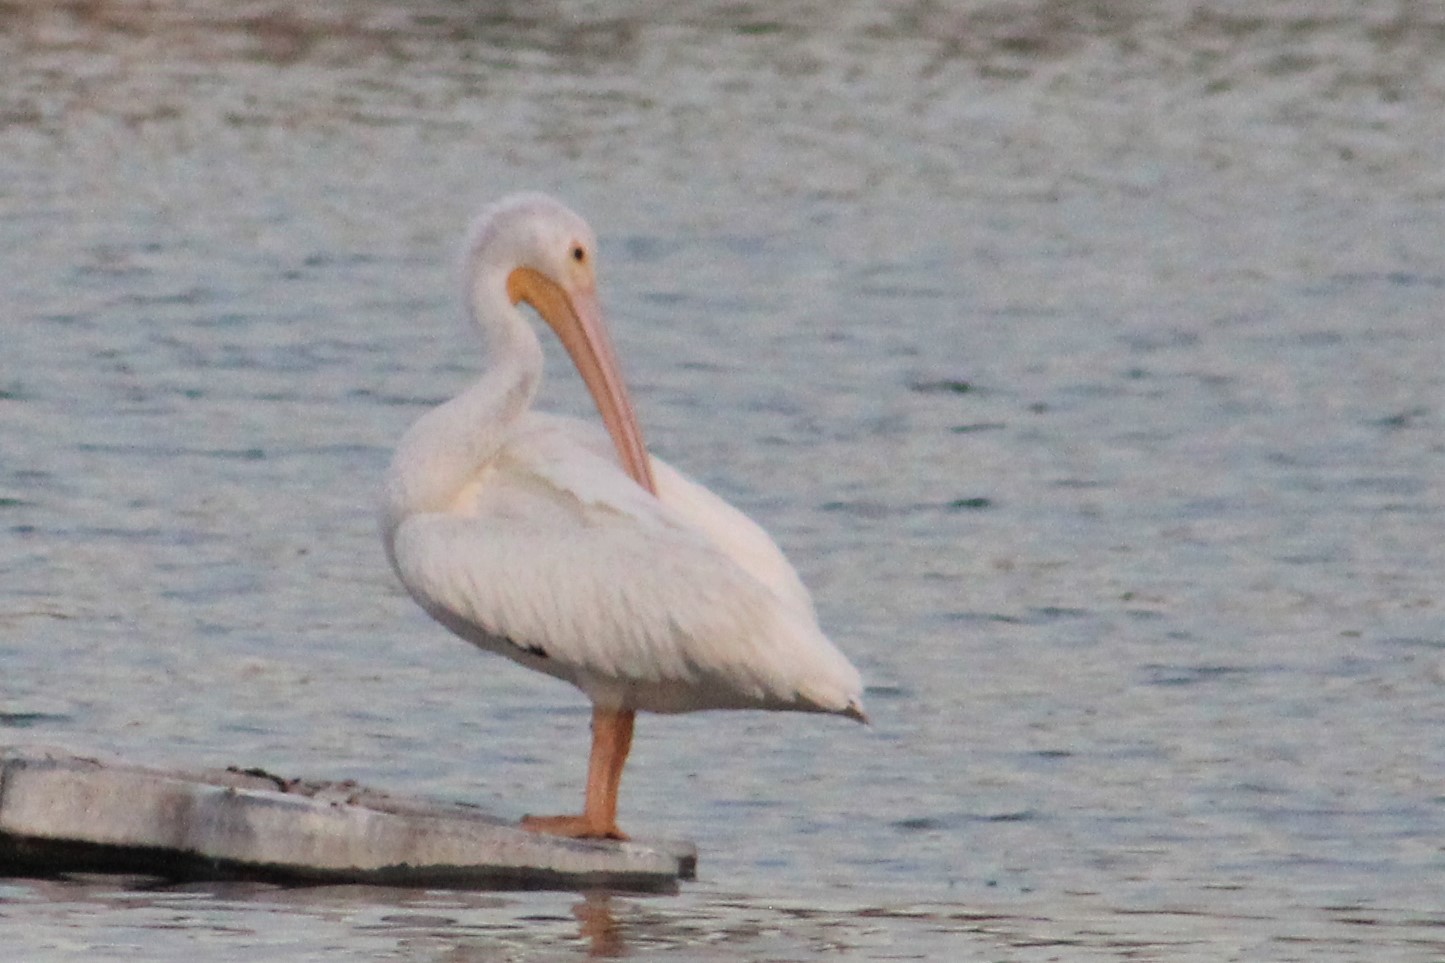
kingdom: Animalia
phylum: Chordata
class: Aves
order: Pelecaniformes
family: Pelecanidae
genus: Pelecanus
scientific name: Pelecanus erythrorhynchos
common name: American white pelican
